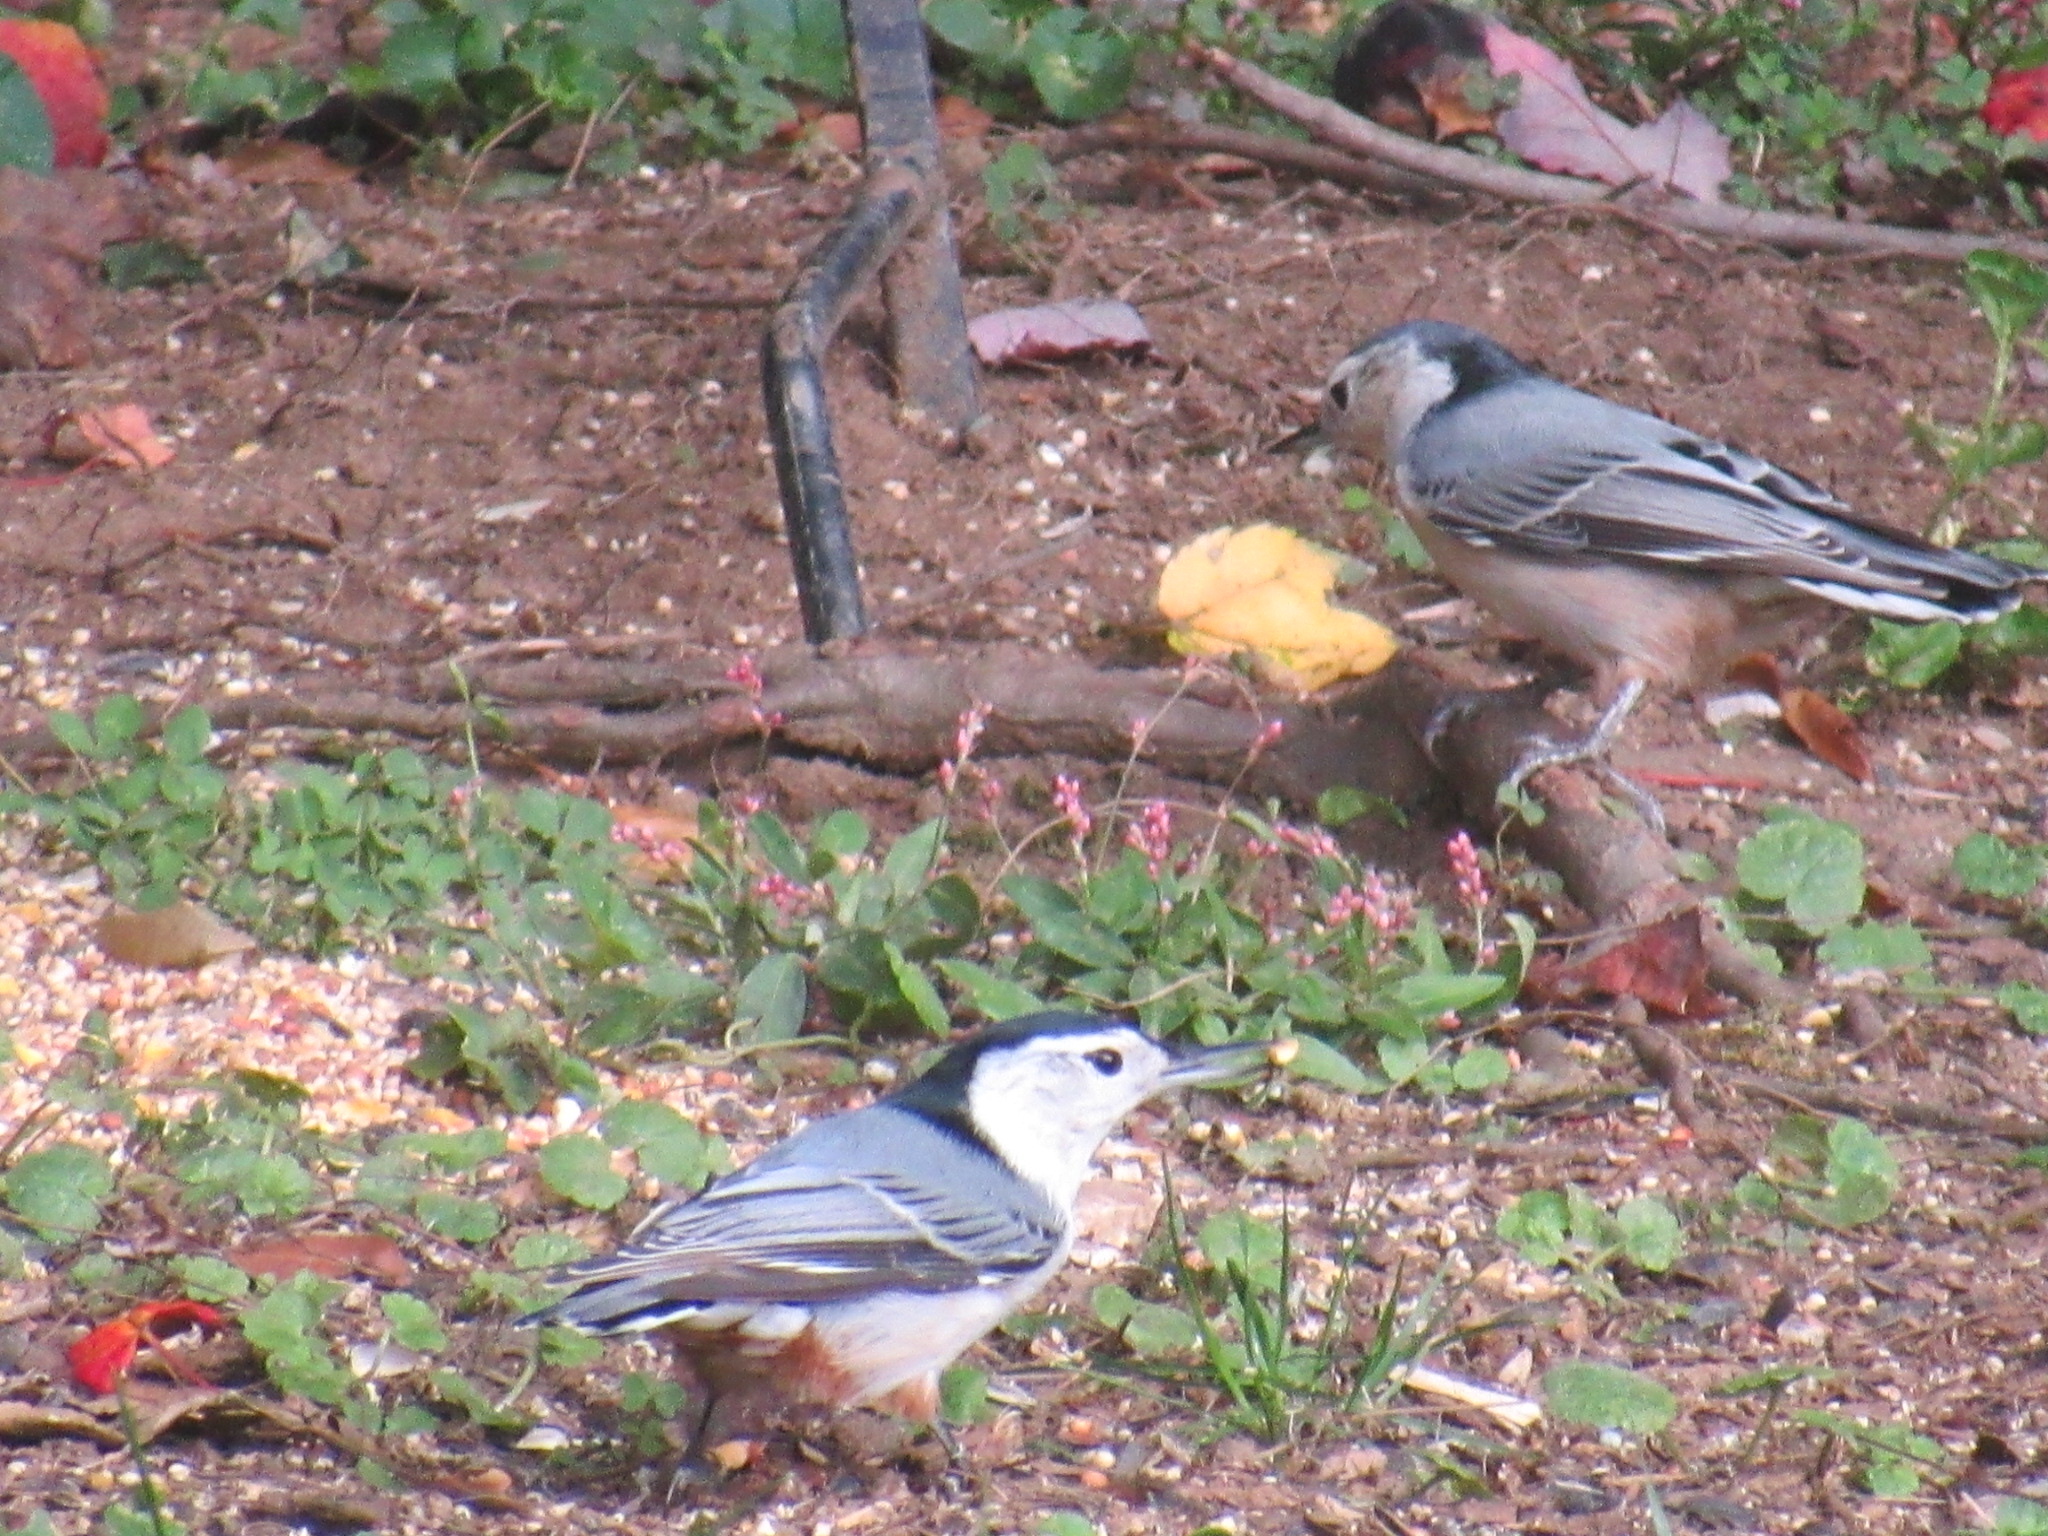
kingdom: Animalia
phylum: Chordata
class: Aves
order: Passeriformes
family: Sittidae
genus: Sitta
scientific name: Sitta carolinensis
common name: White-breasted nuthatch
